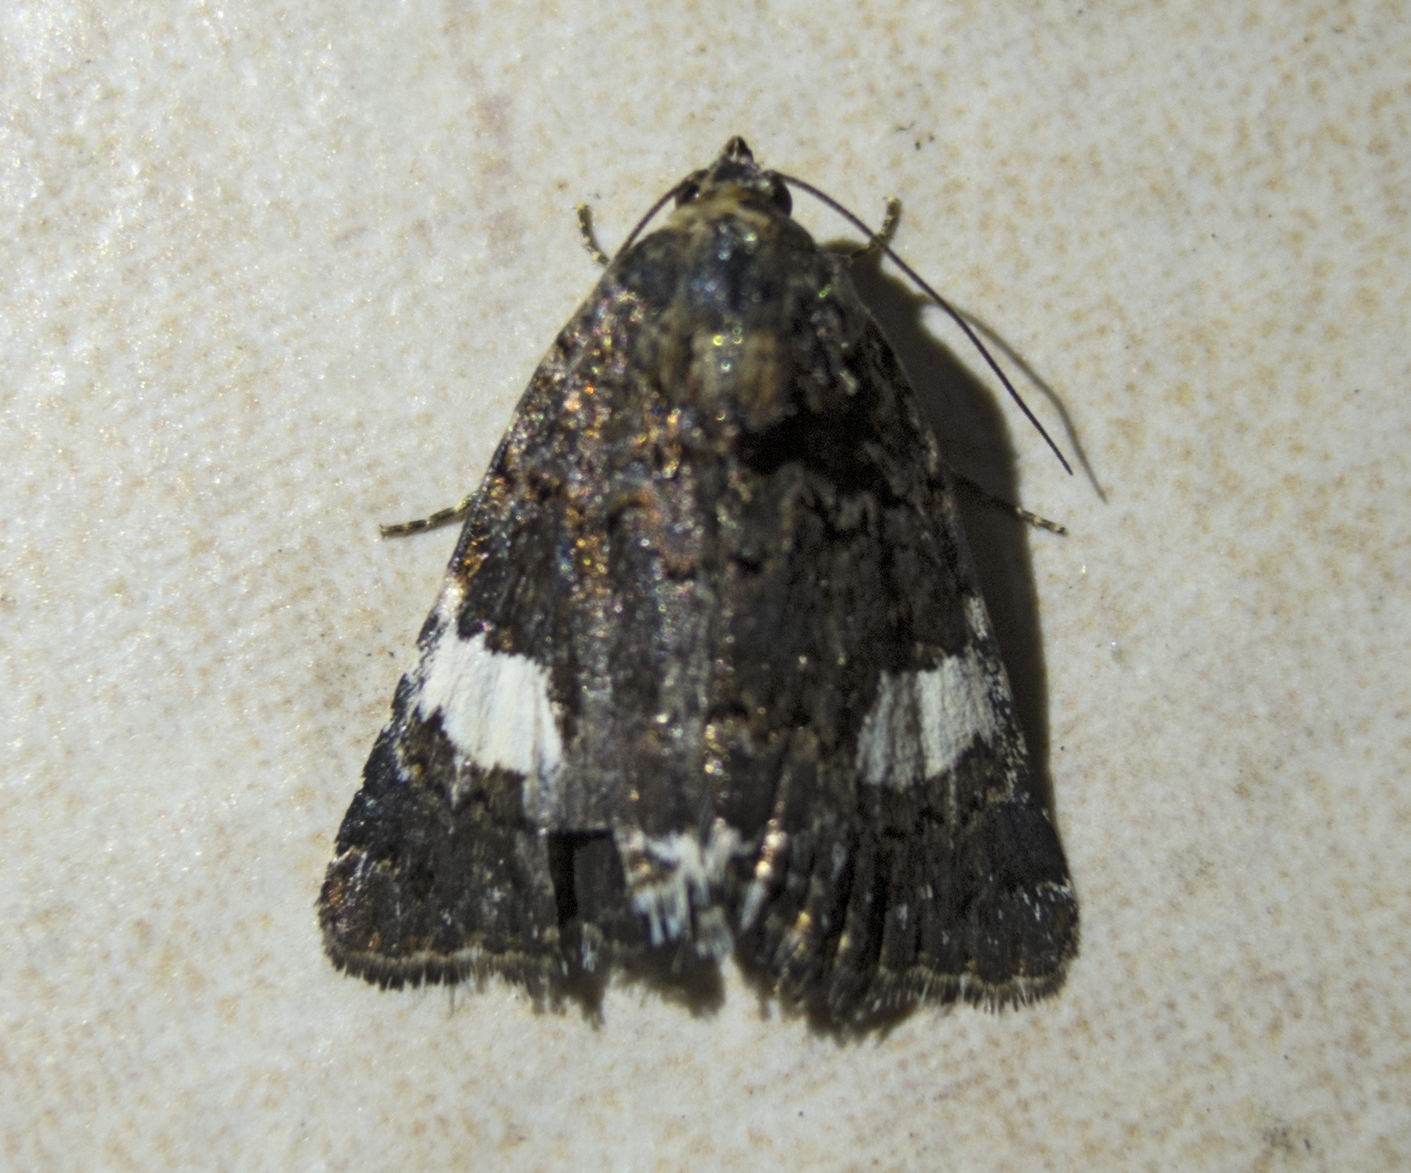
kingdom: Animalia
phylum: Arthropoda
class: Insecta
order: Lepidoptera
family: Erebidae
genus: Tyta
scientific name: Tyta luctuosa
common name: Four-spotted
